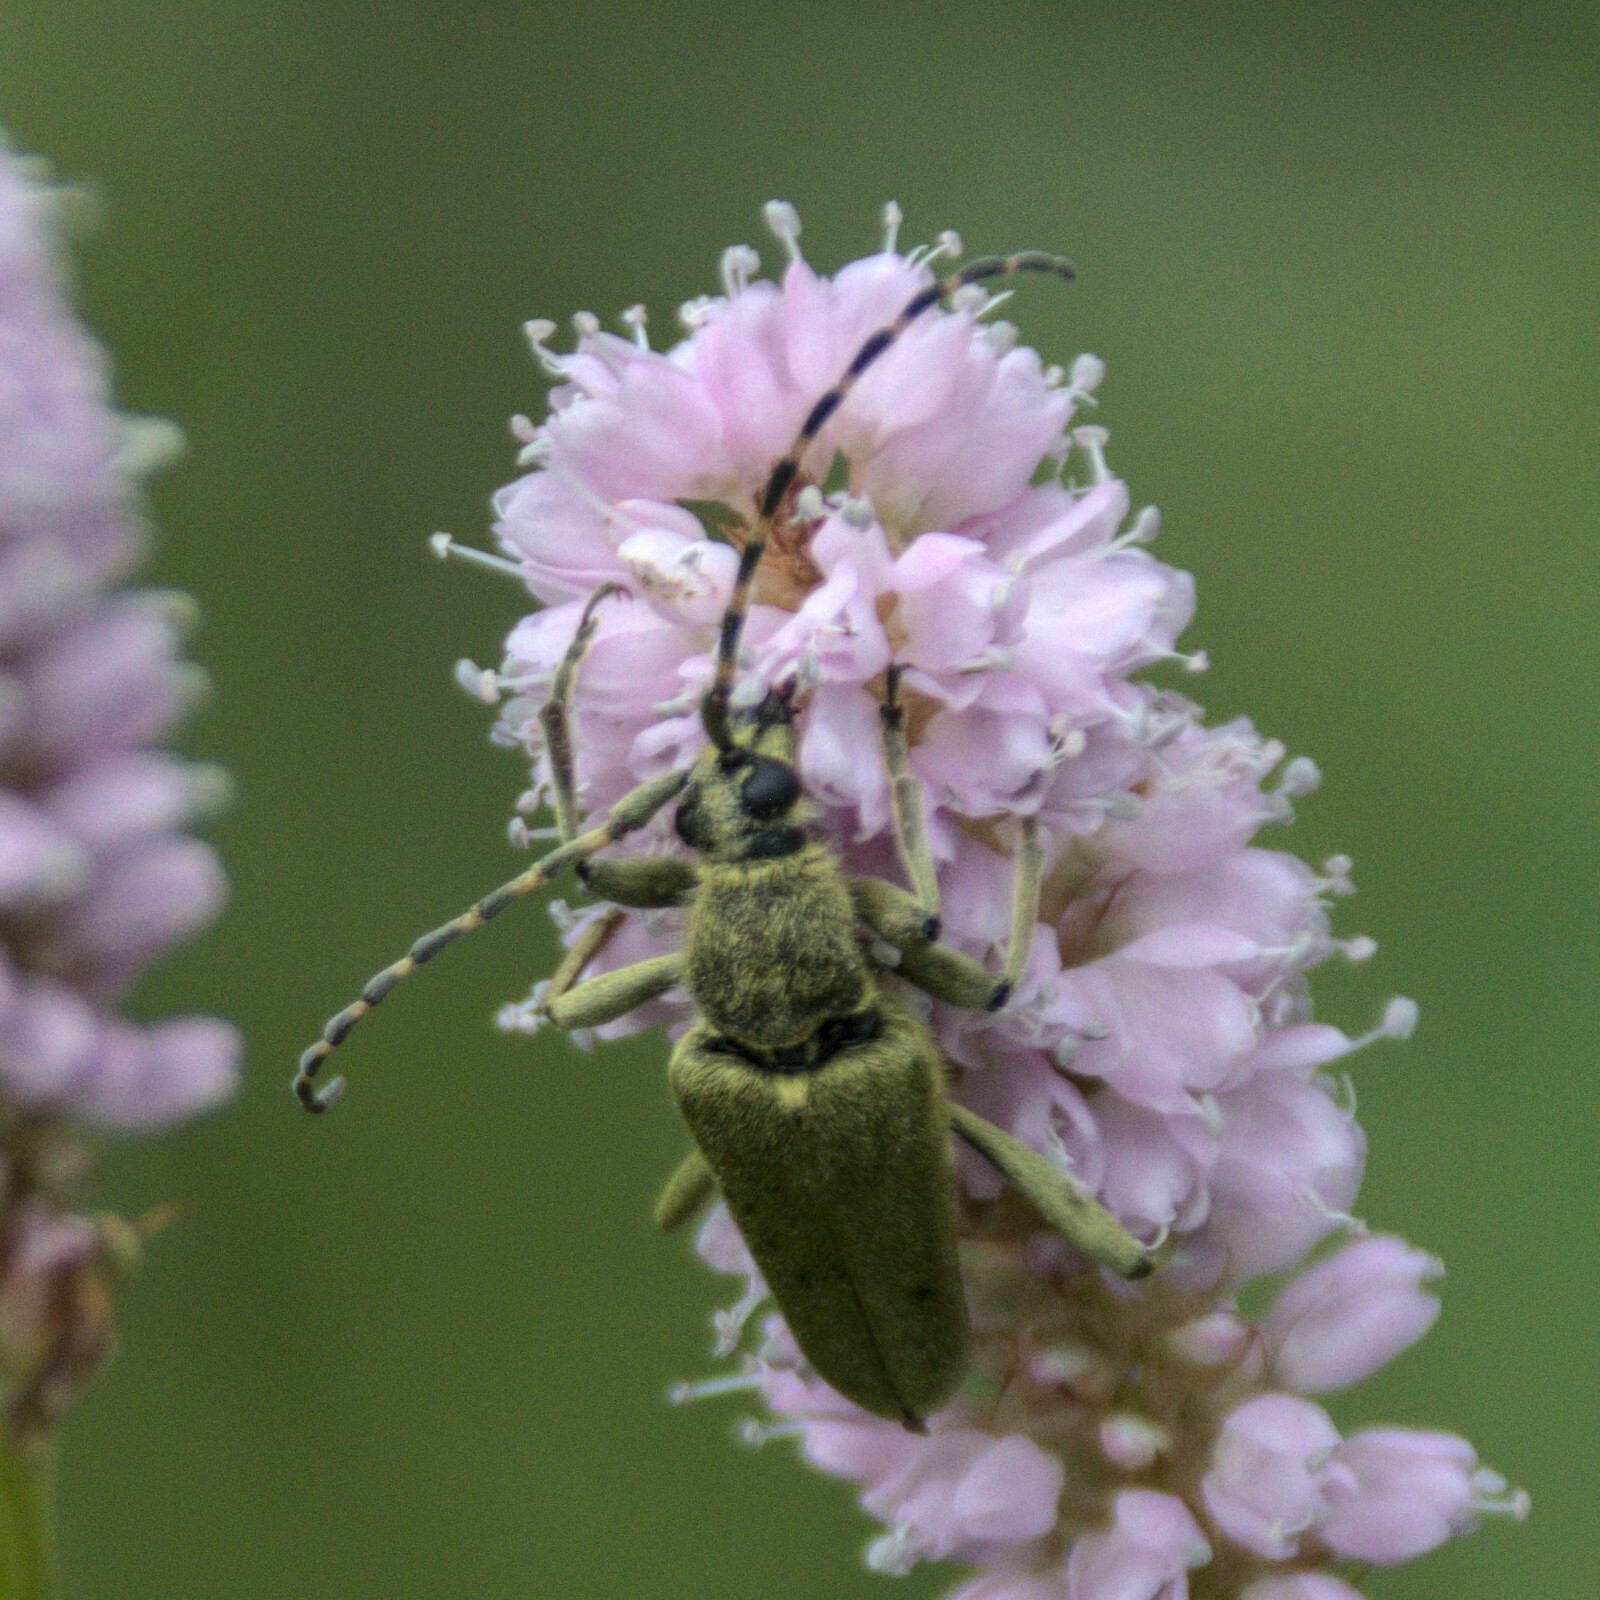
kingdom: Animalia
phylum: Arthropoda
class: Insecta
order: Coleoptera
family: Cerambycidae
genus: Lepturobosca
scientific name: Lepturobosca virens
